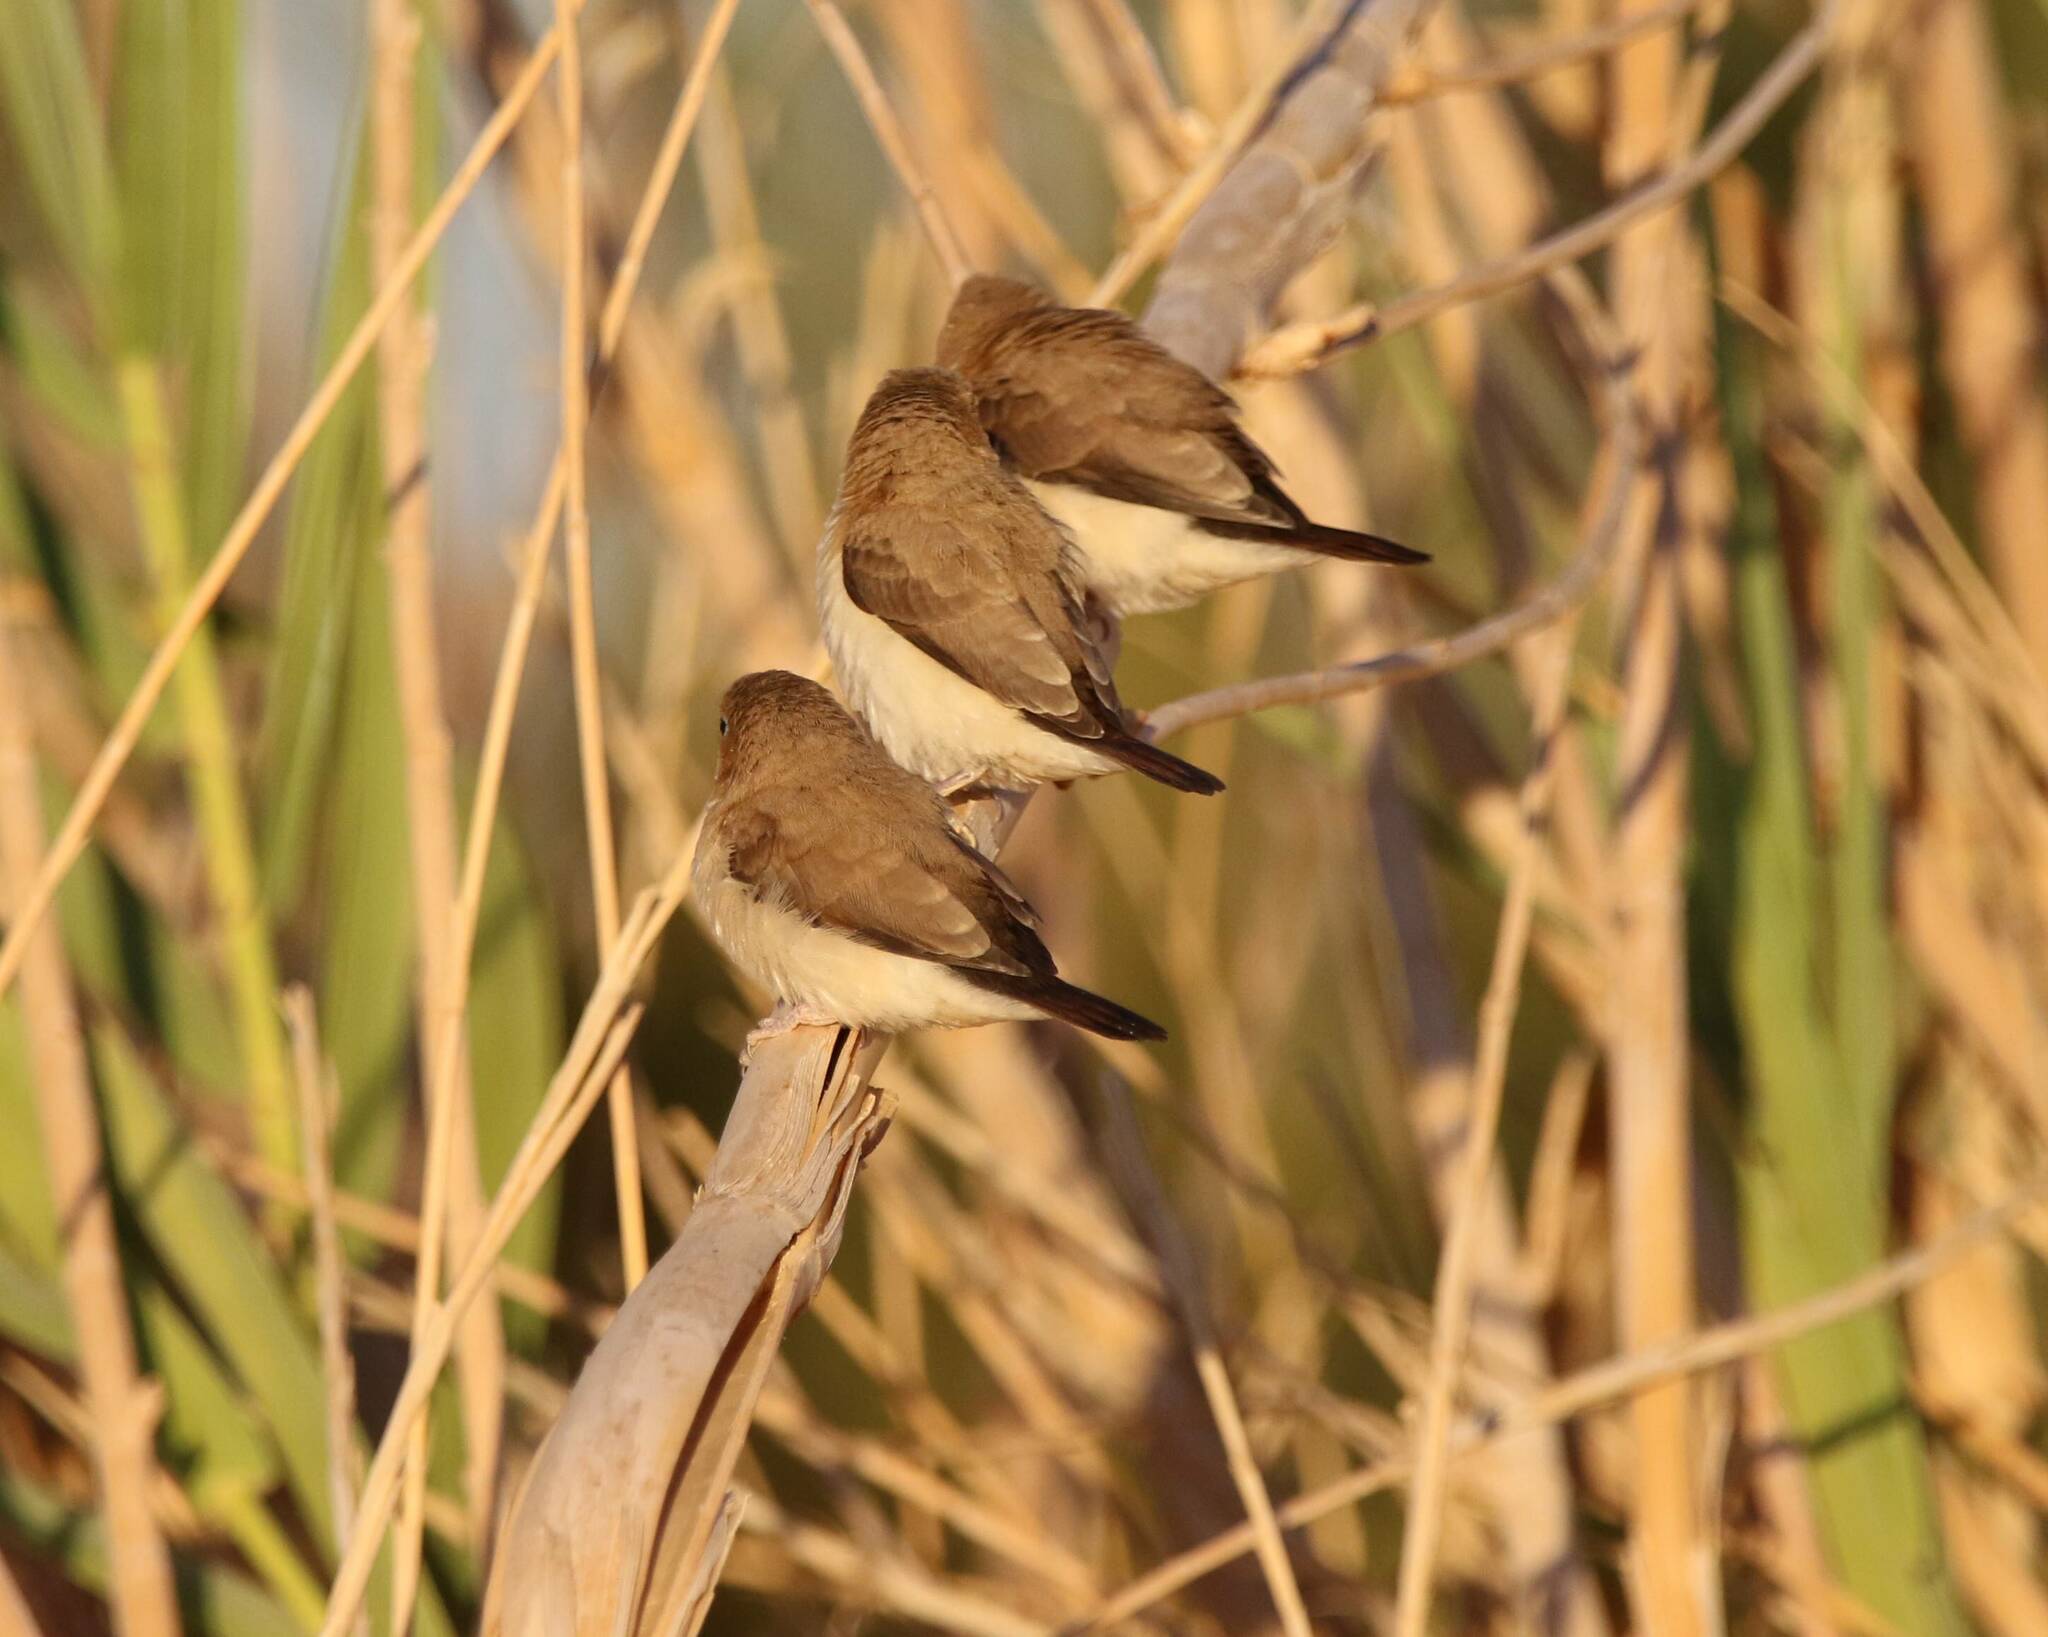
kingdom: Animalia
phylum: Chordata
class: Aves
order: Passeriformes
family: Estrildidae
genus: Euodice
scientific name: Euodice cantans
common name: African silverbill
